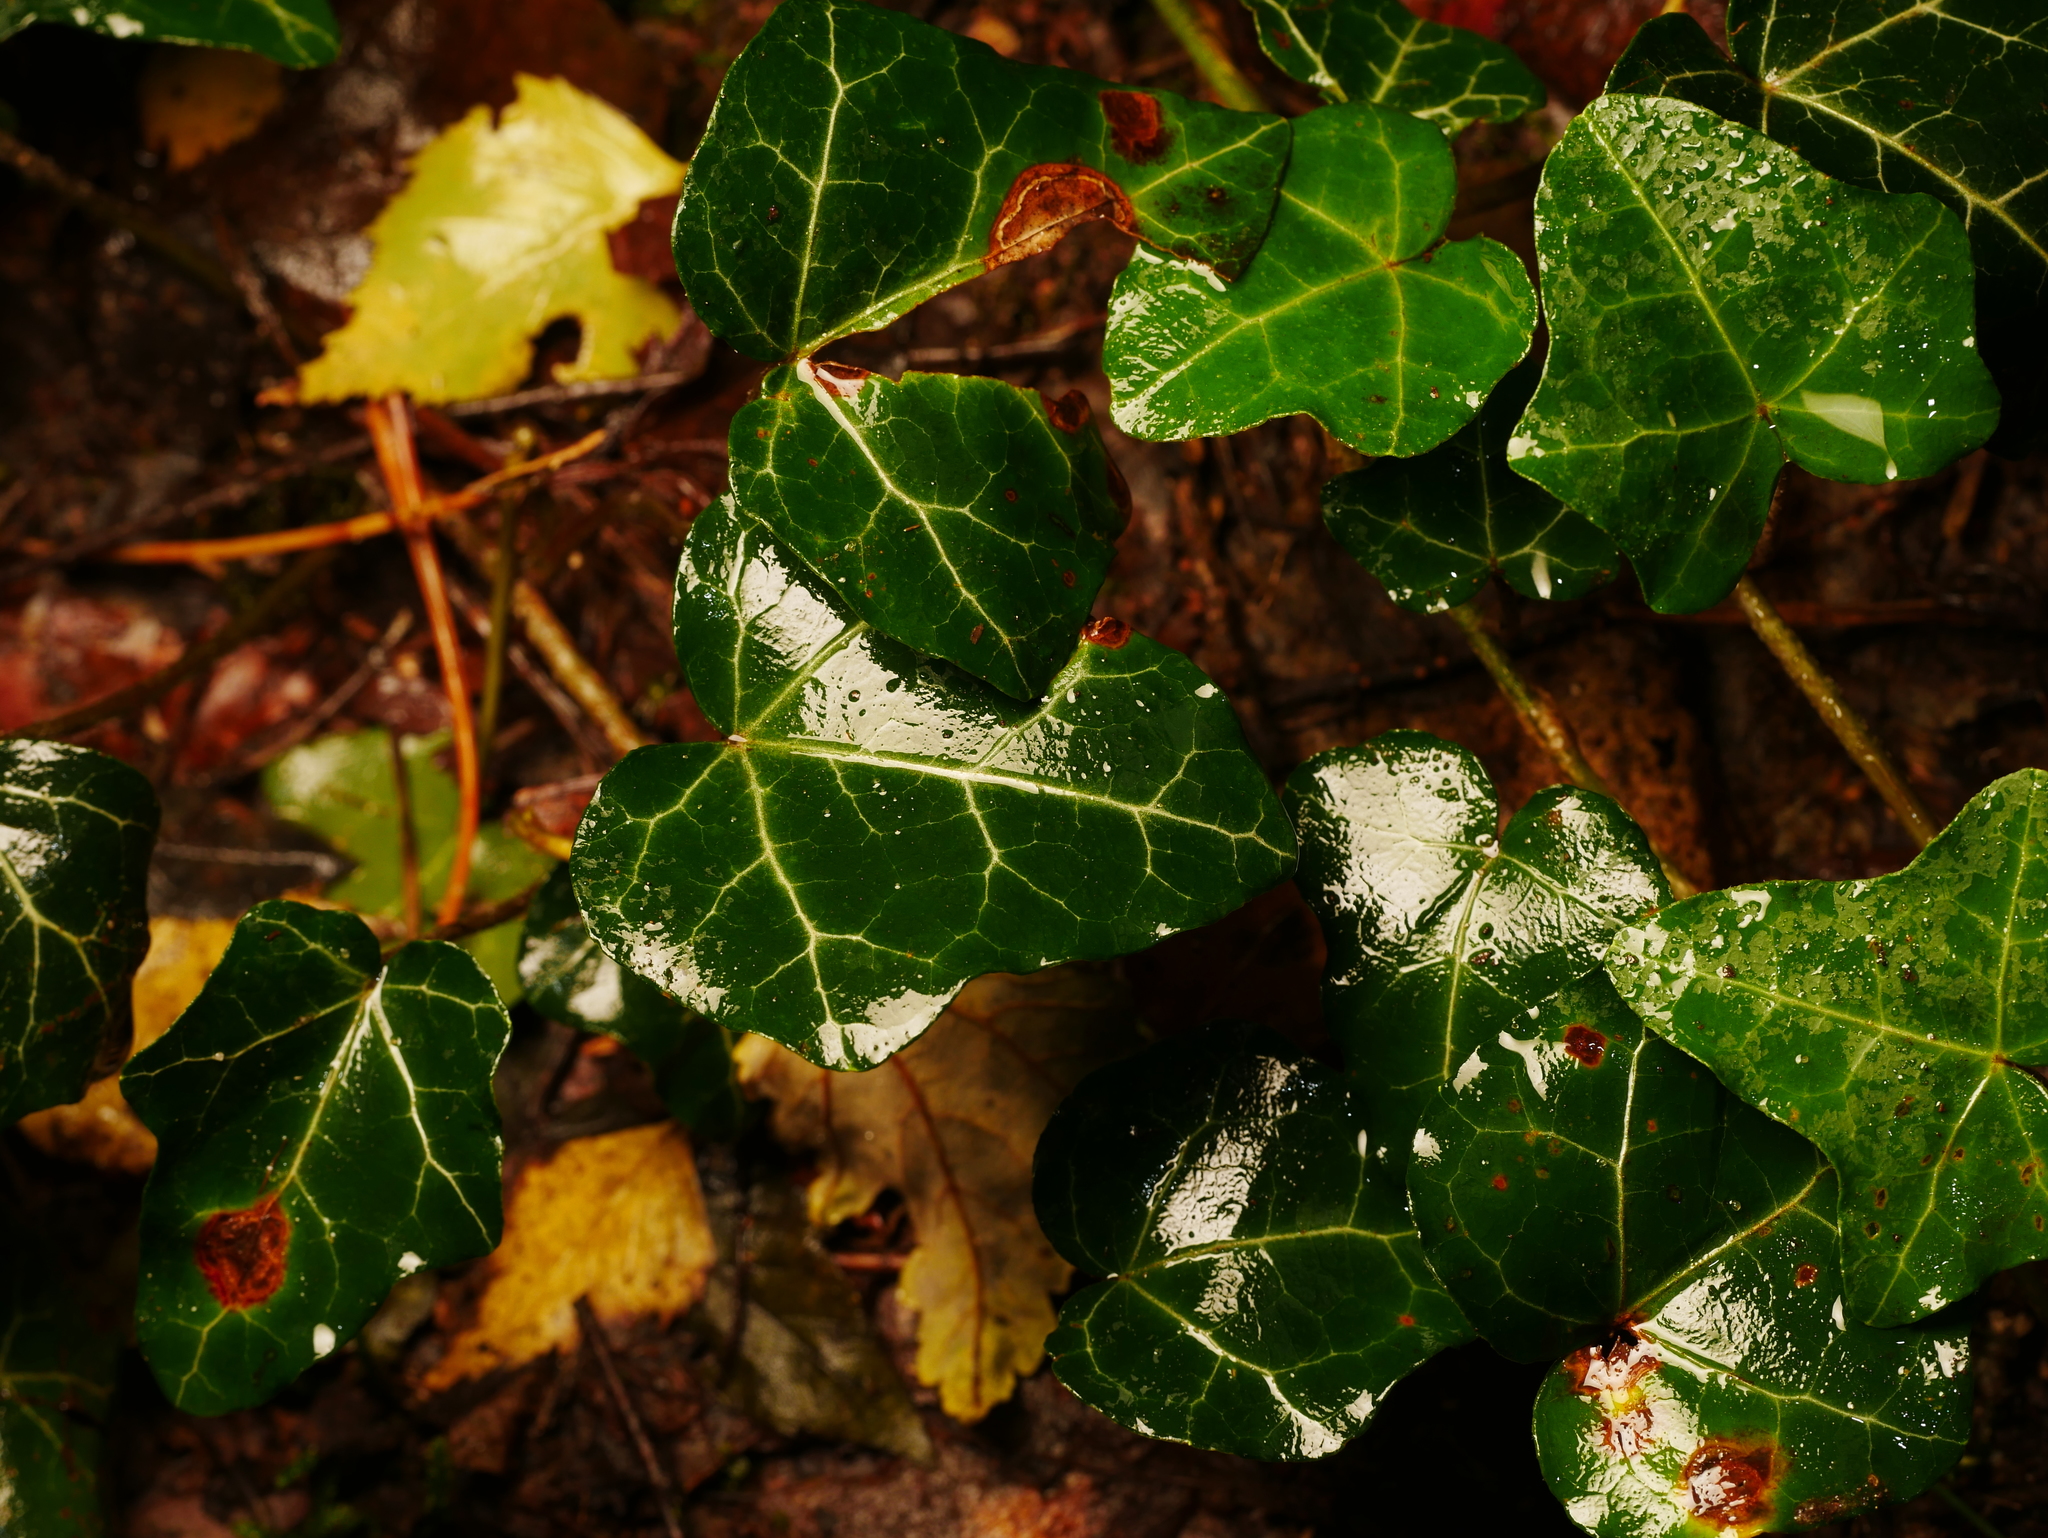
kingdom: Plantae
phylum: Tracheophyta
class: Magnoliopsida
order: Apiales
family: Araliaceae
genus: Hedera
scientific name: Hedera helix
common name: Ivy
